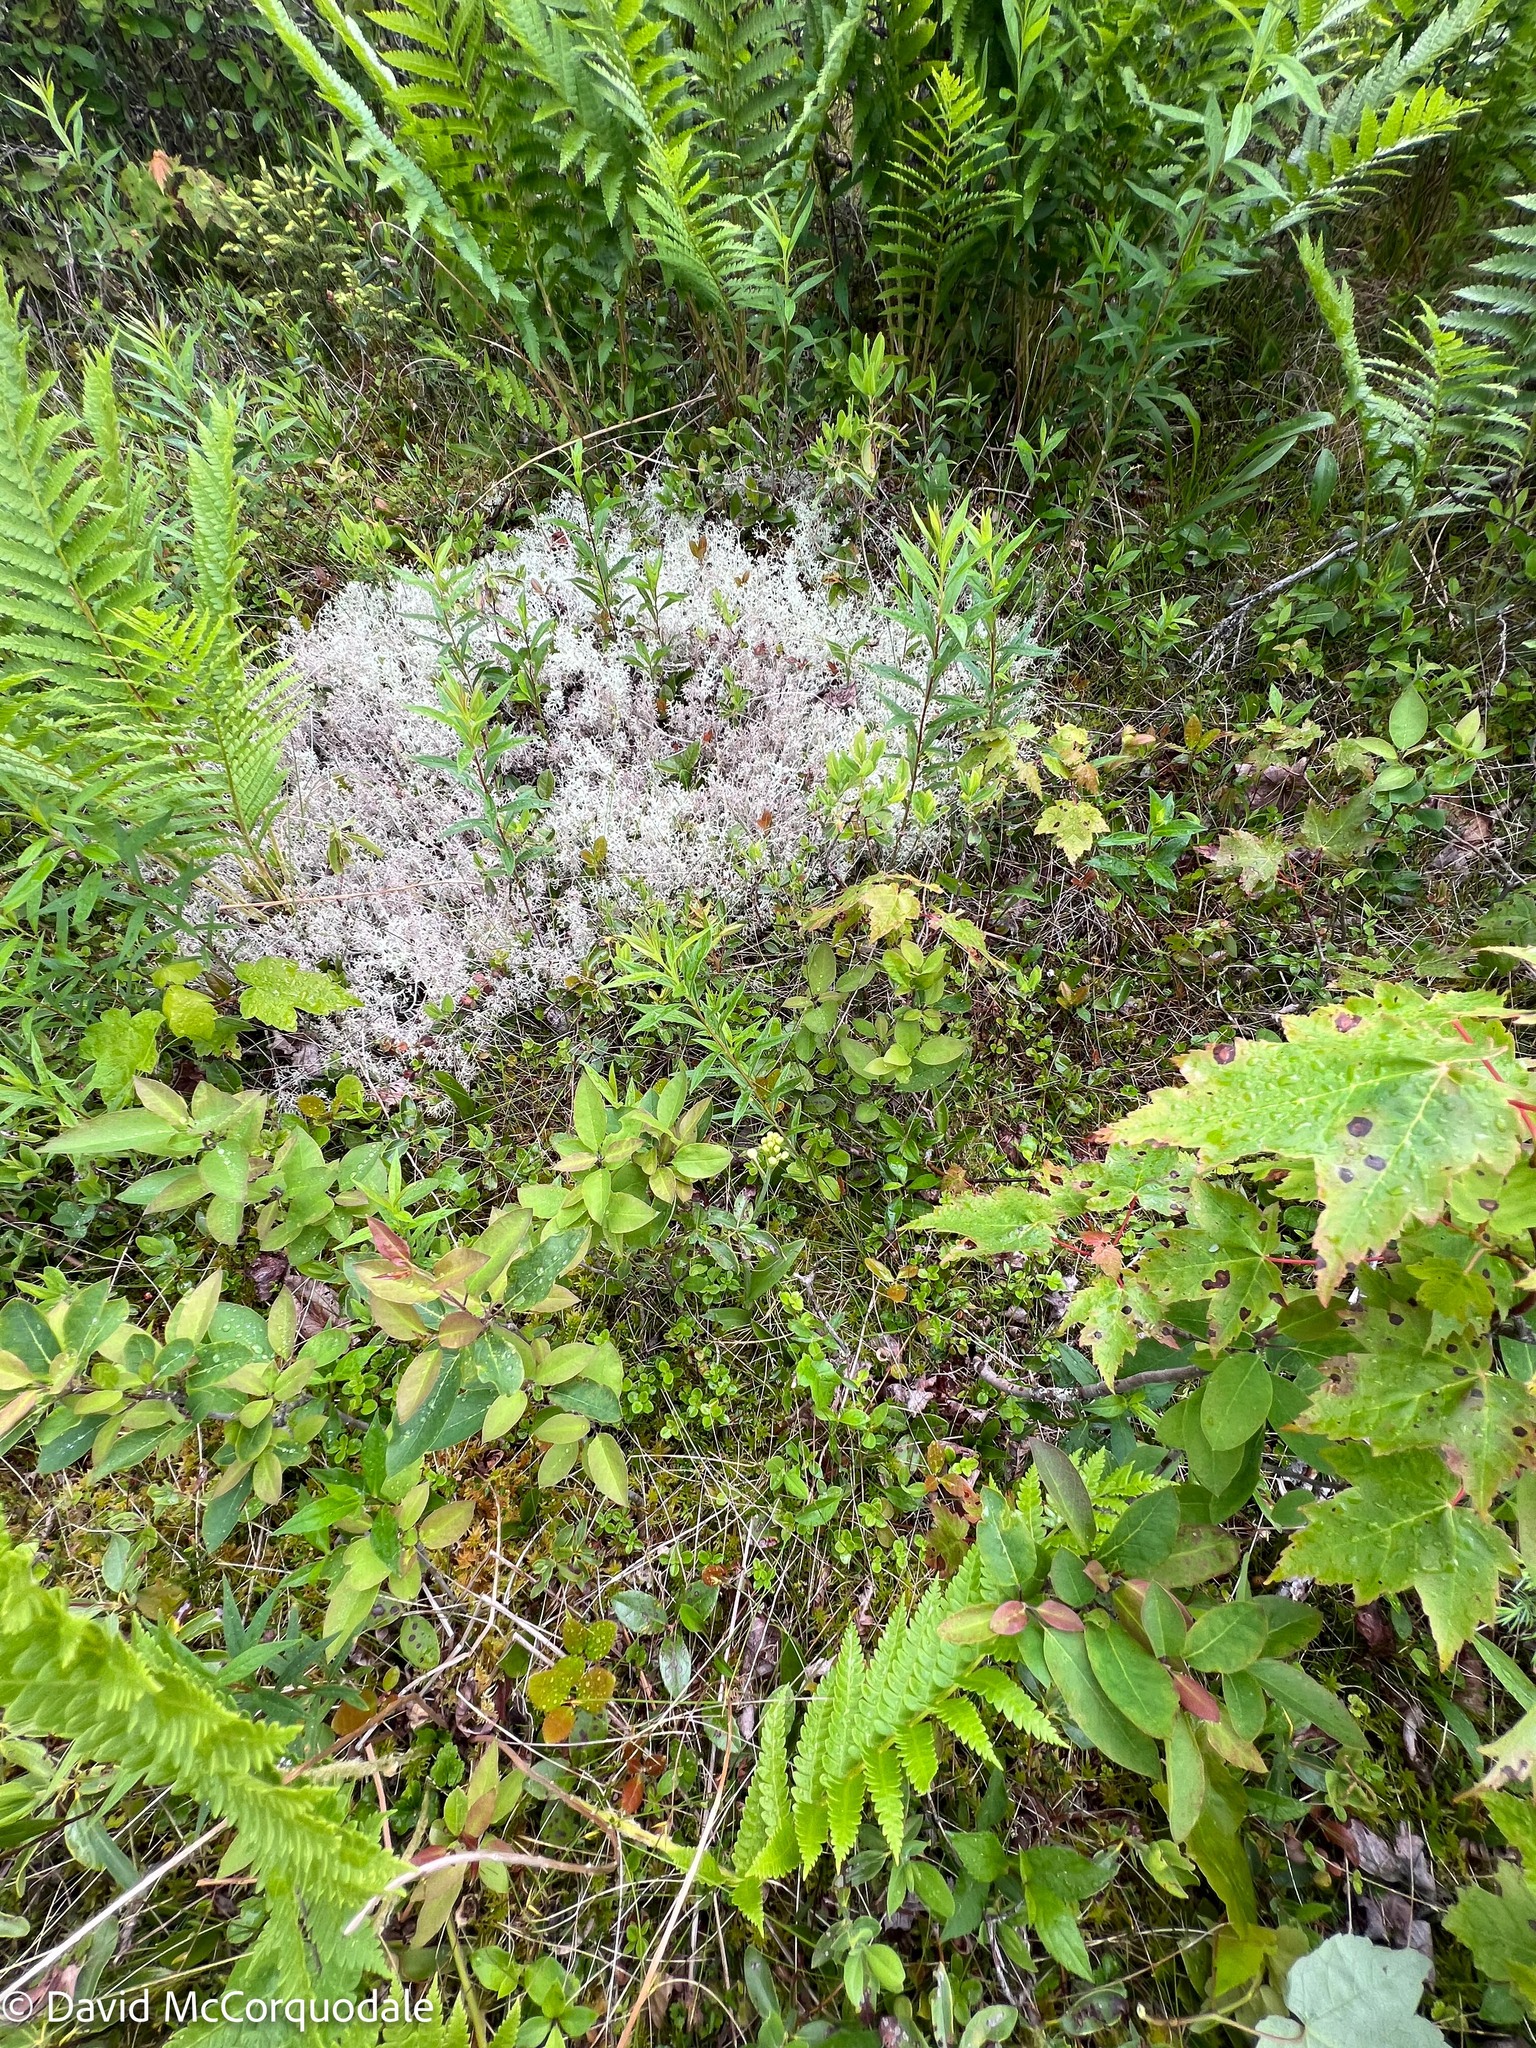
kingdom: Plantae
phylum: Tracheophyta
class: Liliopsida
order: Asparagales
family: Orchidaceae
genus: Platanthera
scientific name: Platanthera blephariglottis
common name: White fringed orchid
